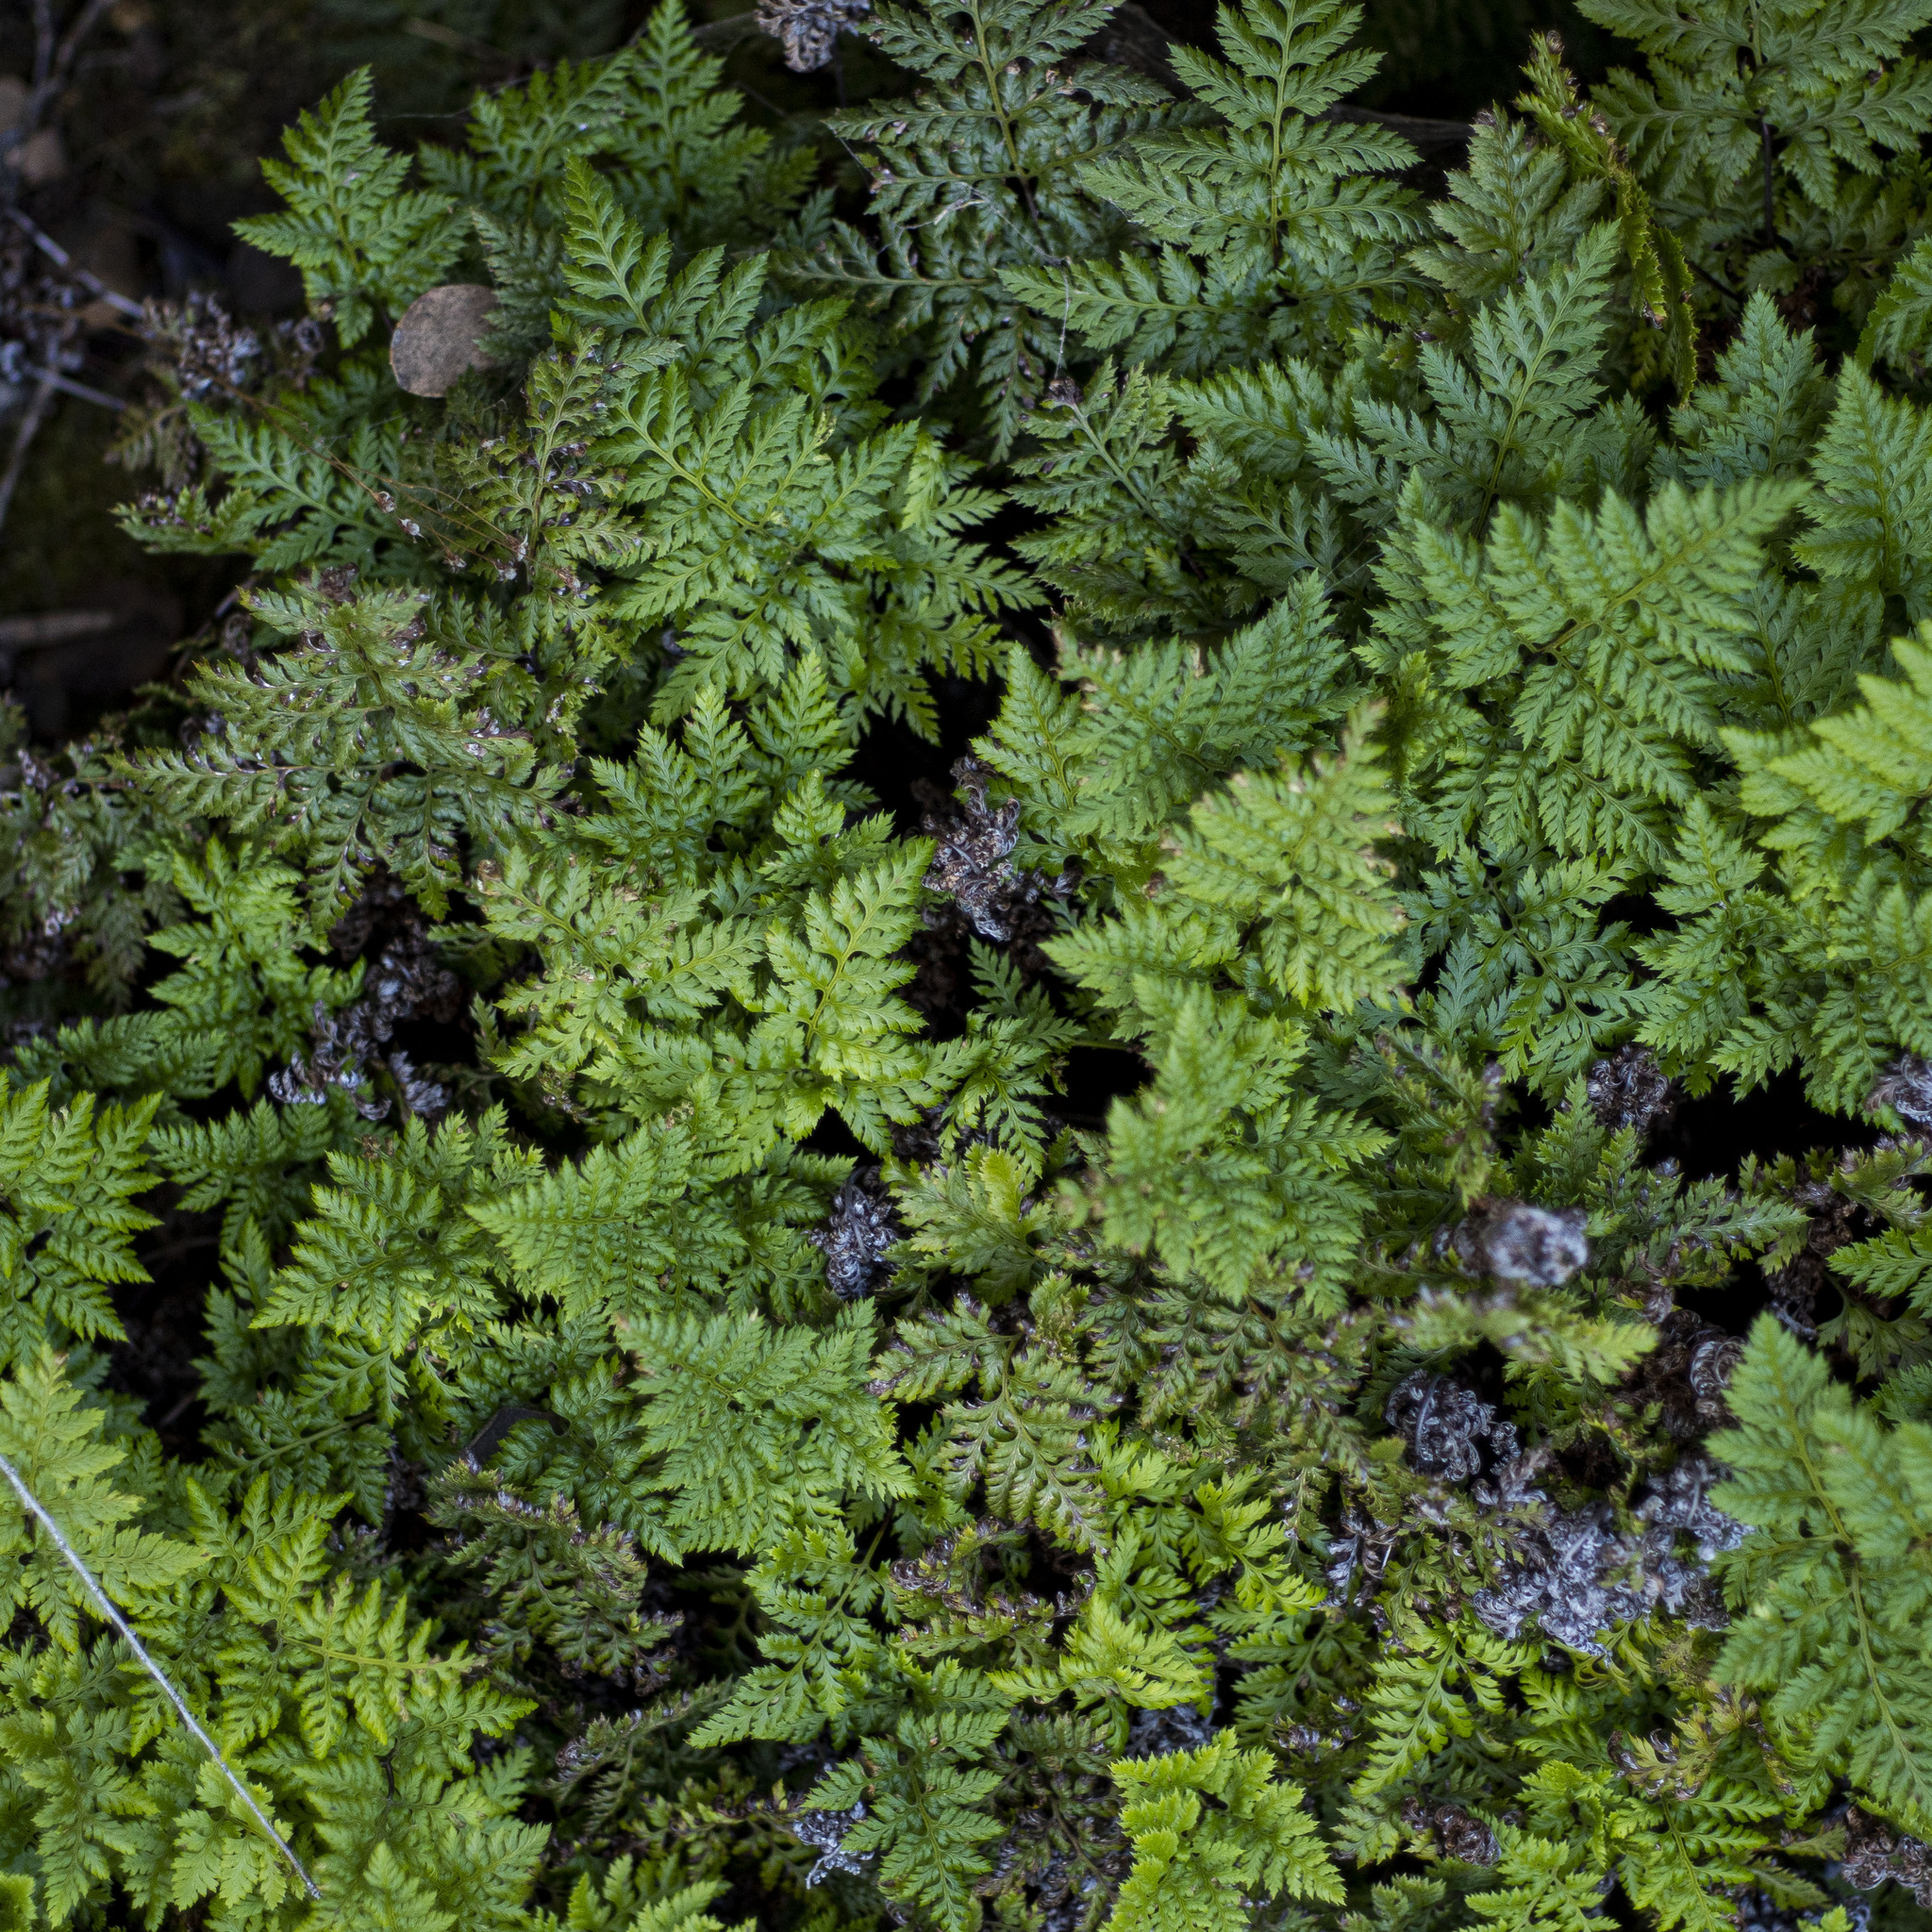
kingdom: Plantae
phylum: Tracheophyta
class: Polypodiopsida
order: Polypodiales
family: Pteridaceae
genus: Aspidotis
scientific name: Aspidotis californica
